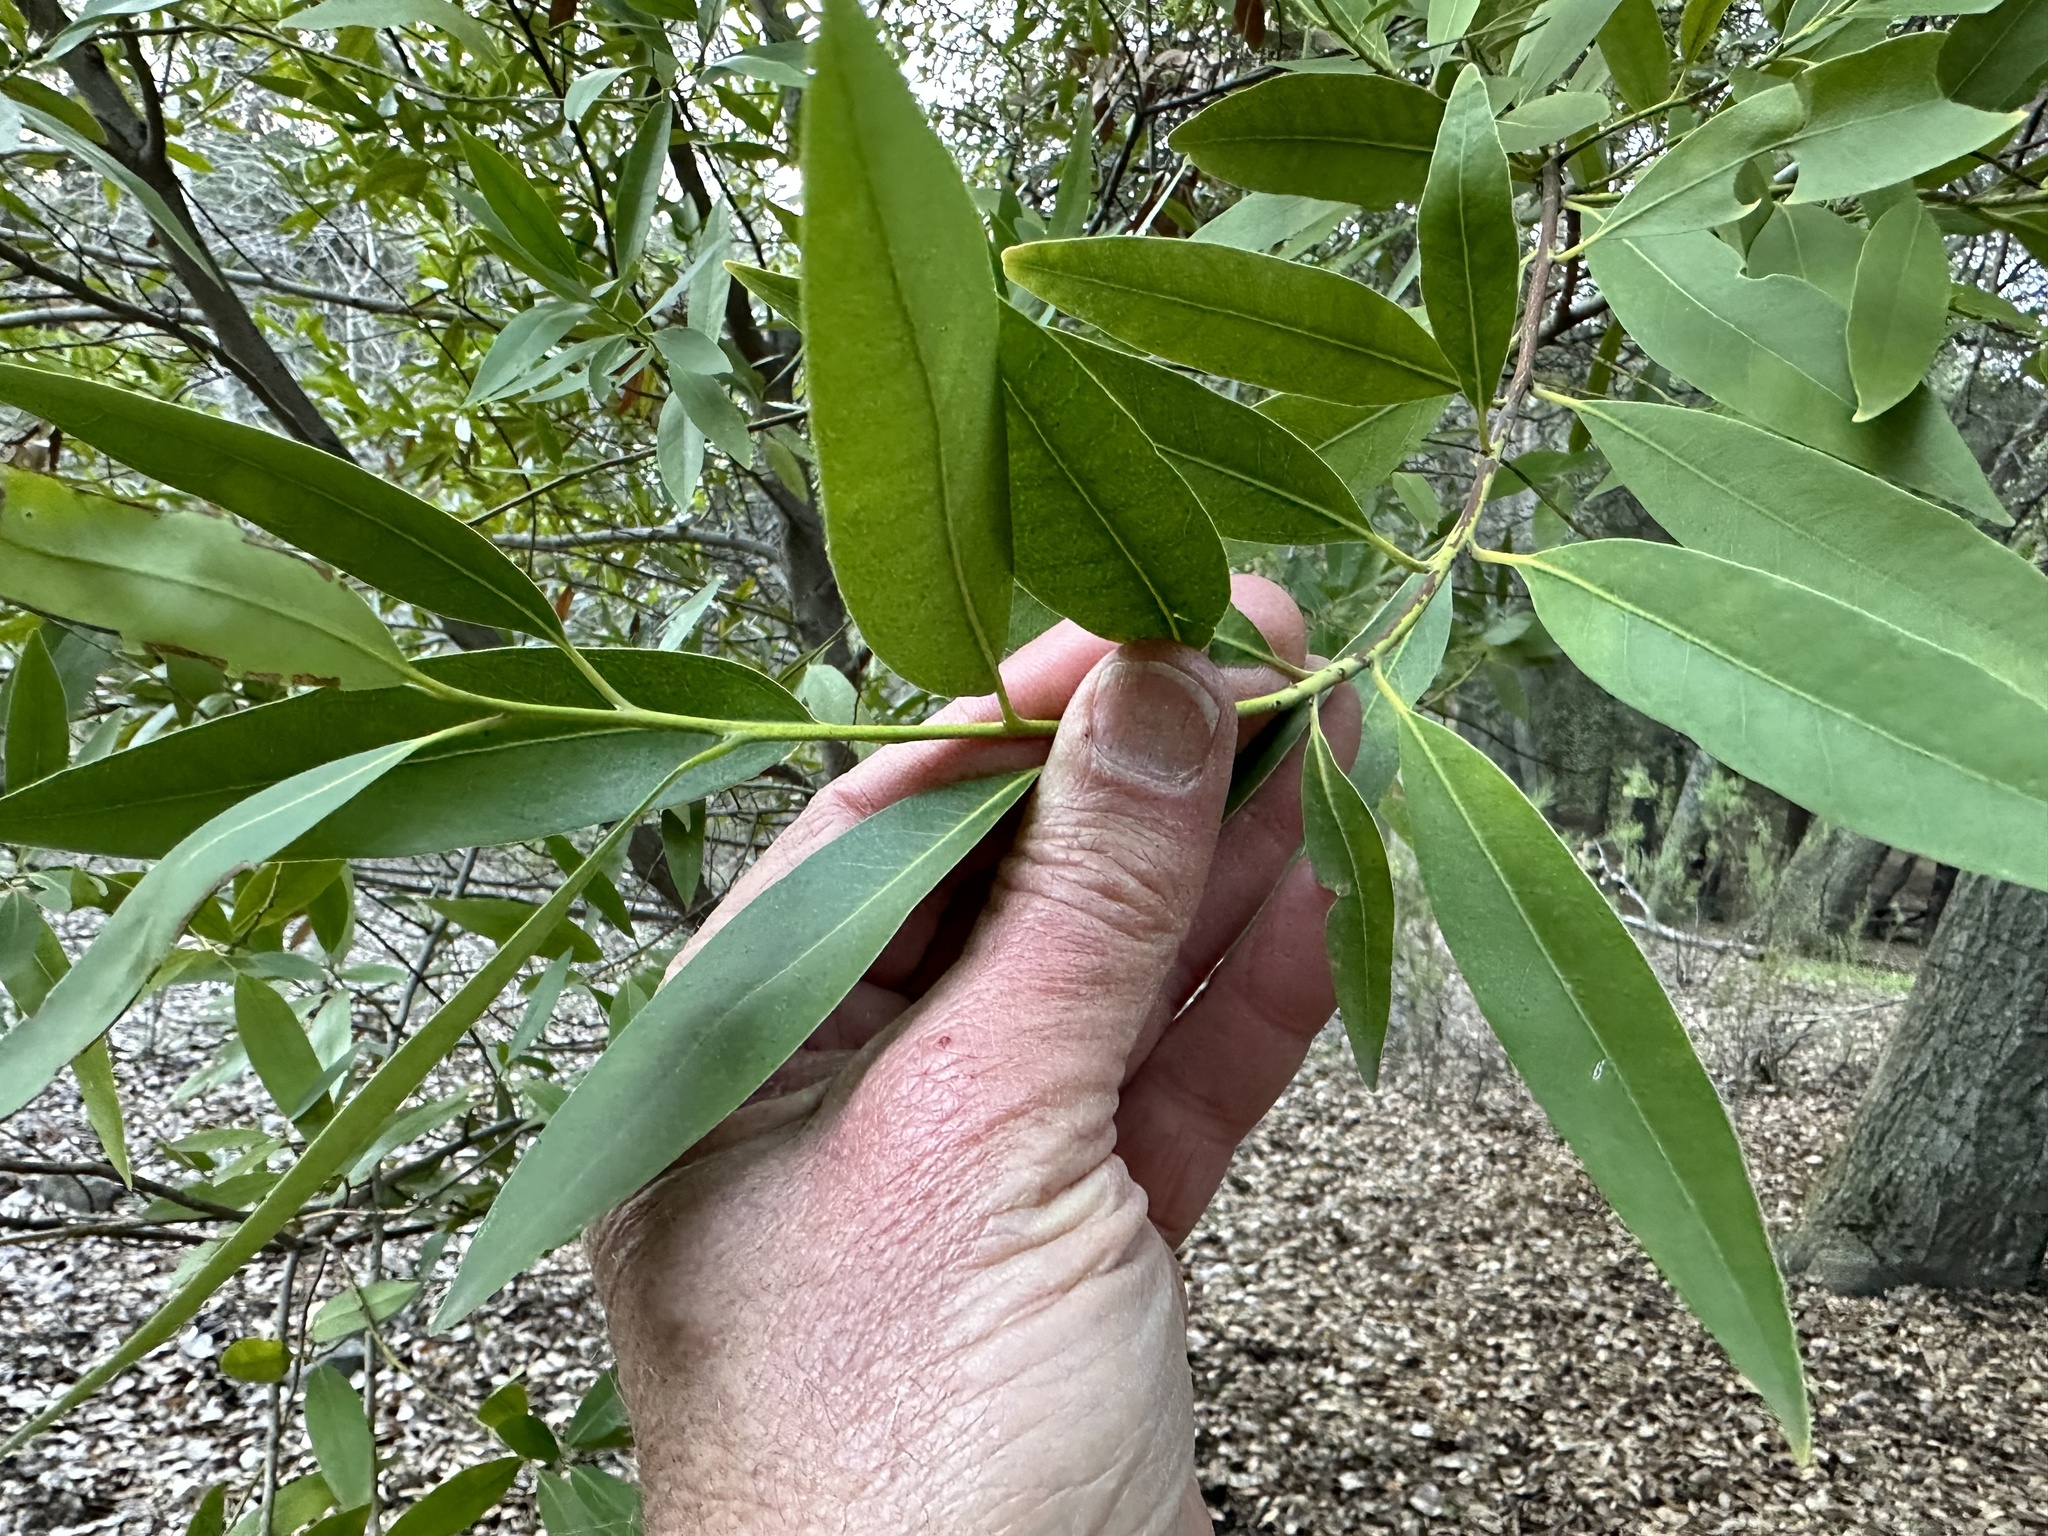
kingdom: Plantae
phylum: Tracheophyta
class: Magnoliopsida
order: Laurales
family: Lauraceae
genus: Umbellularia
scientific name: Umbellularia californica
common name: California bay
